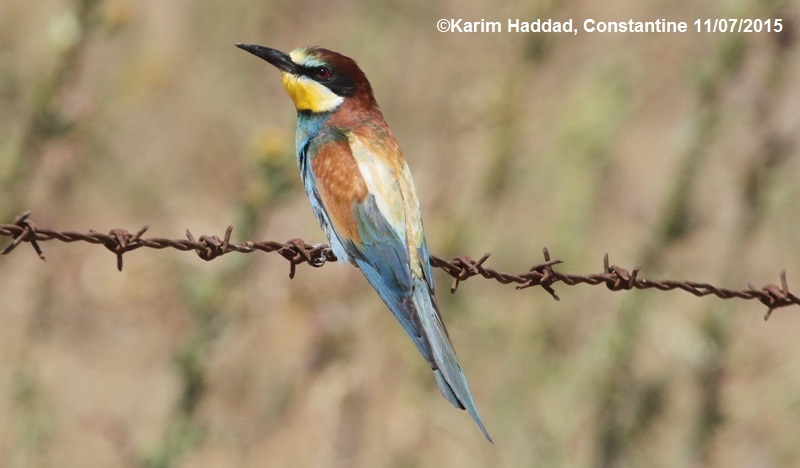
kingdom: Animalia
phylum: Chordata
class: Aves
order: Coraciiformes
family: Meropidae
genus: Merops
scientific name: Merops apiaster
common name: European bee-eater
